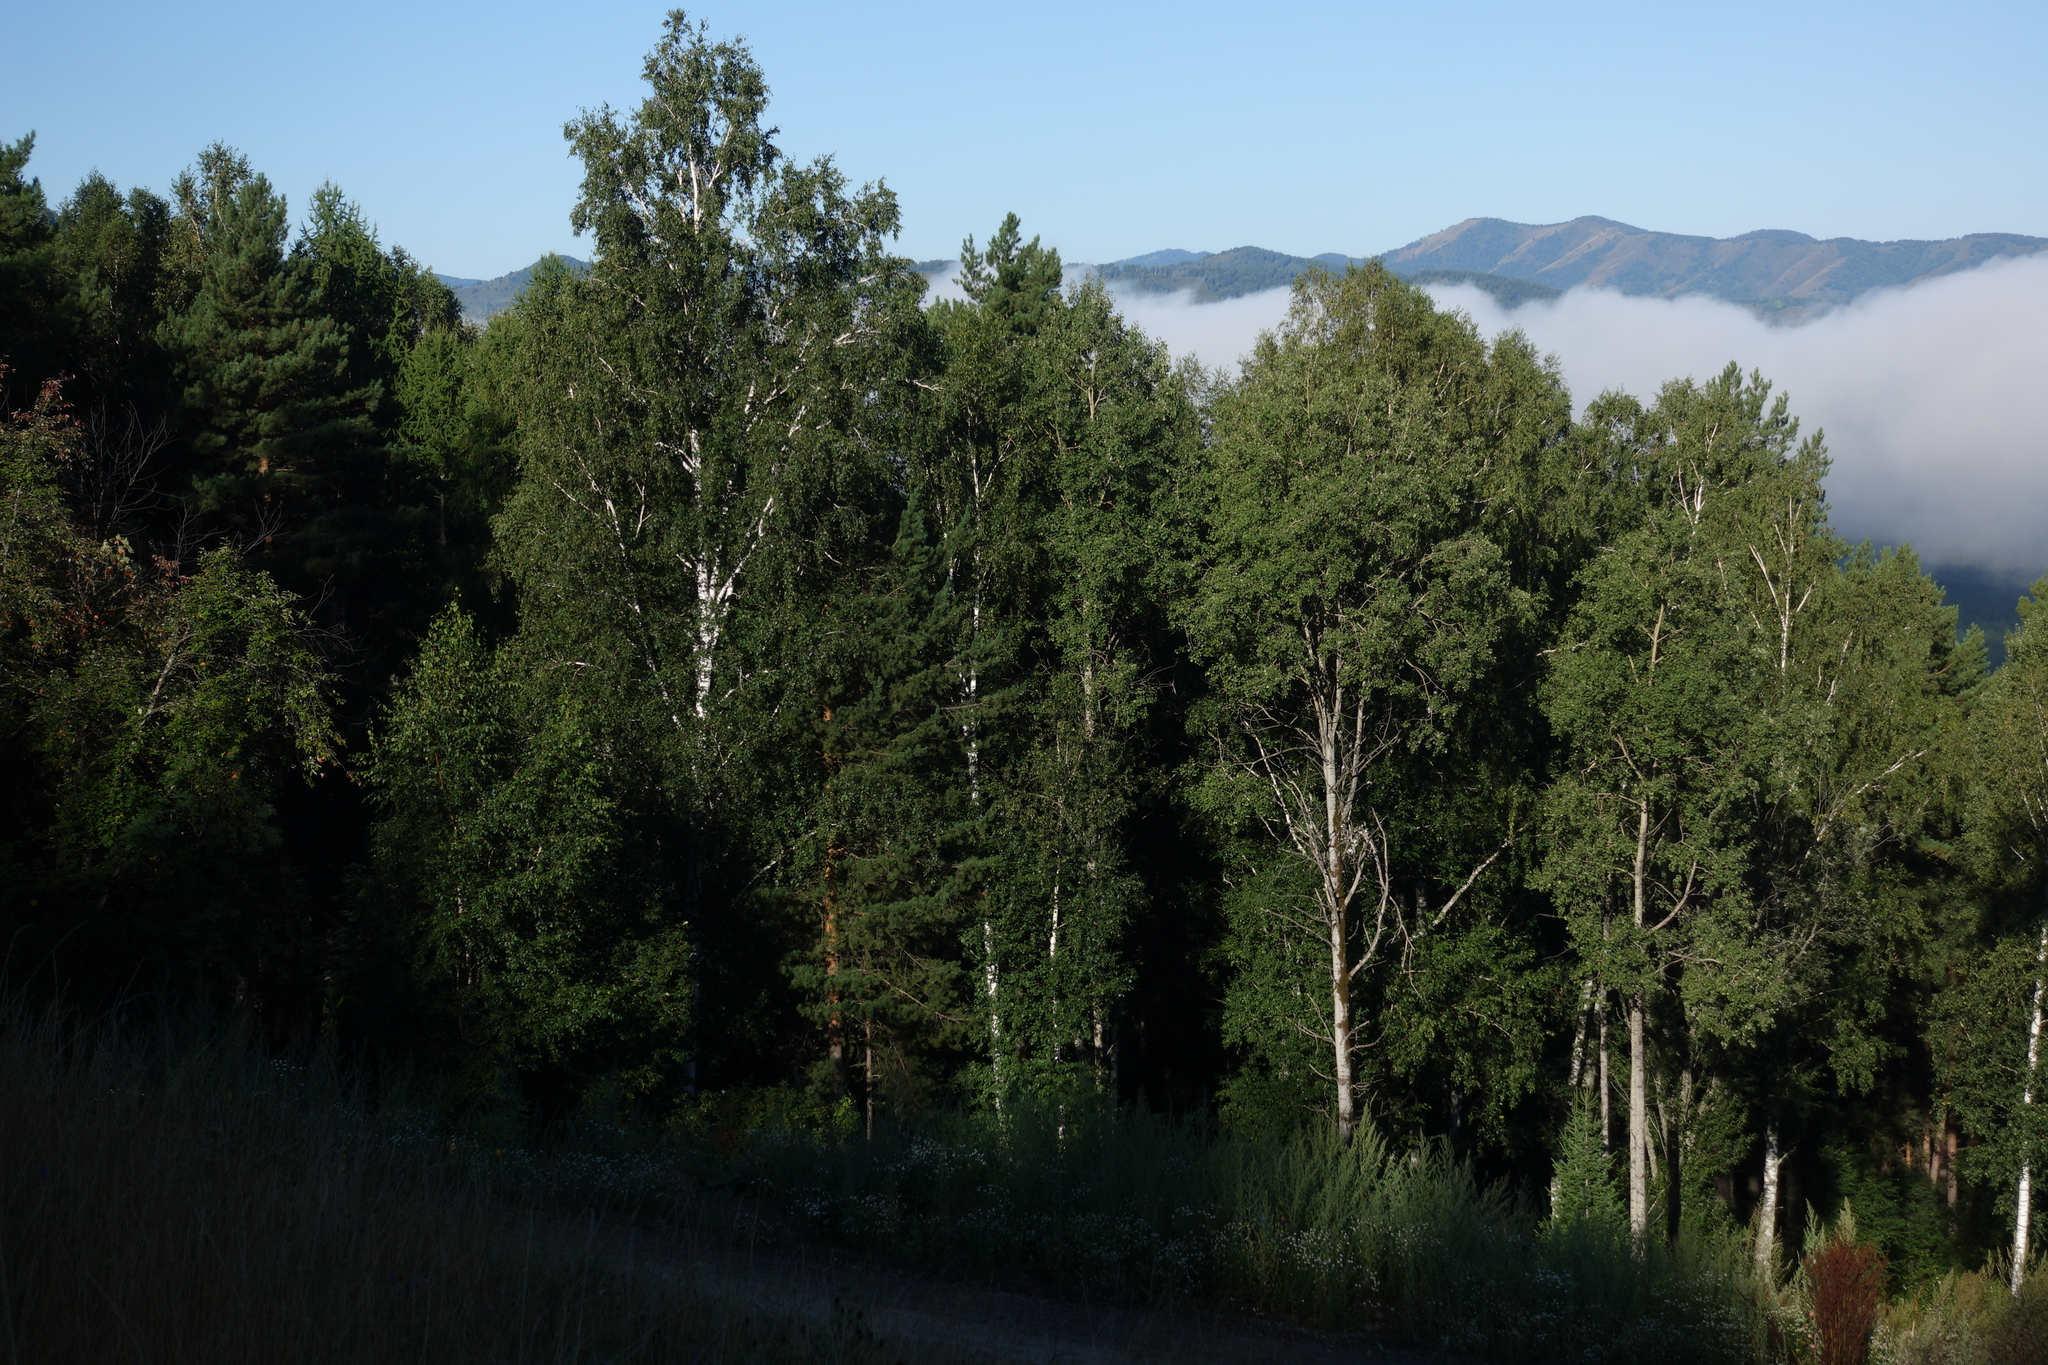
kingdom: Plantae
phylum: Tracheophyta
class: Magnoliopsida
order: Fagales
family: Betulaceae
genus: Betula
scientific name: Betula pendula
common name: Silver birch
